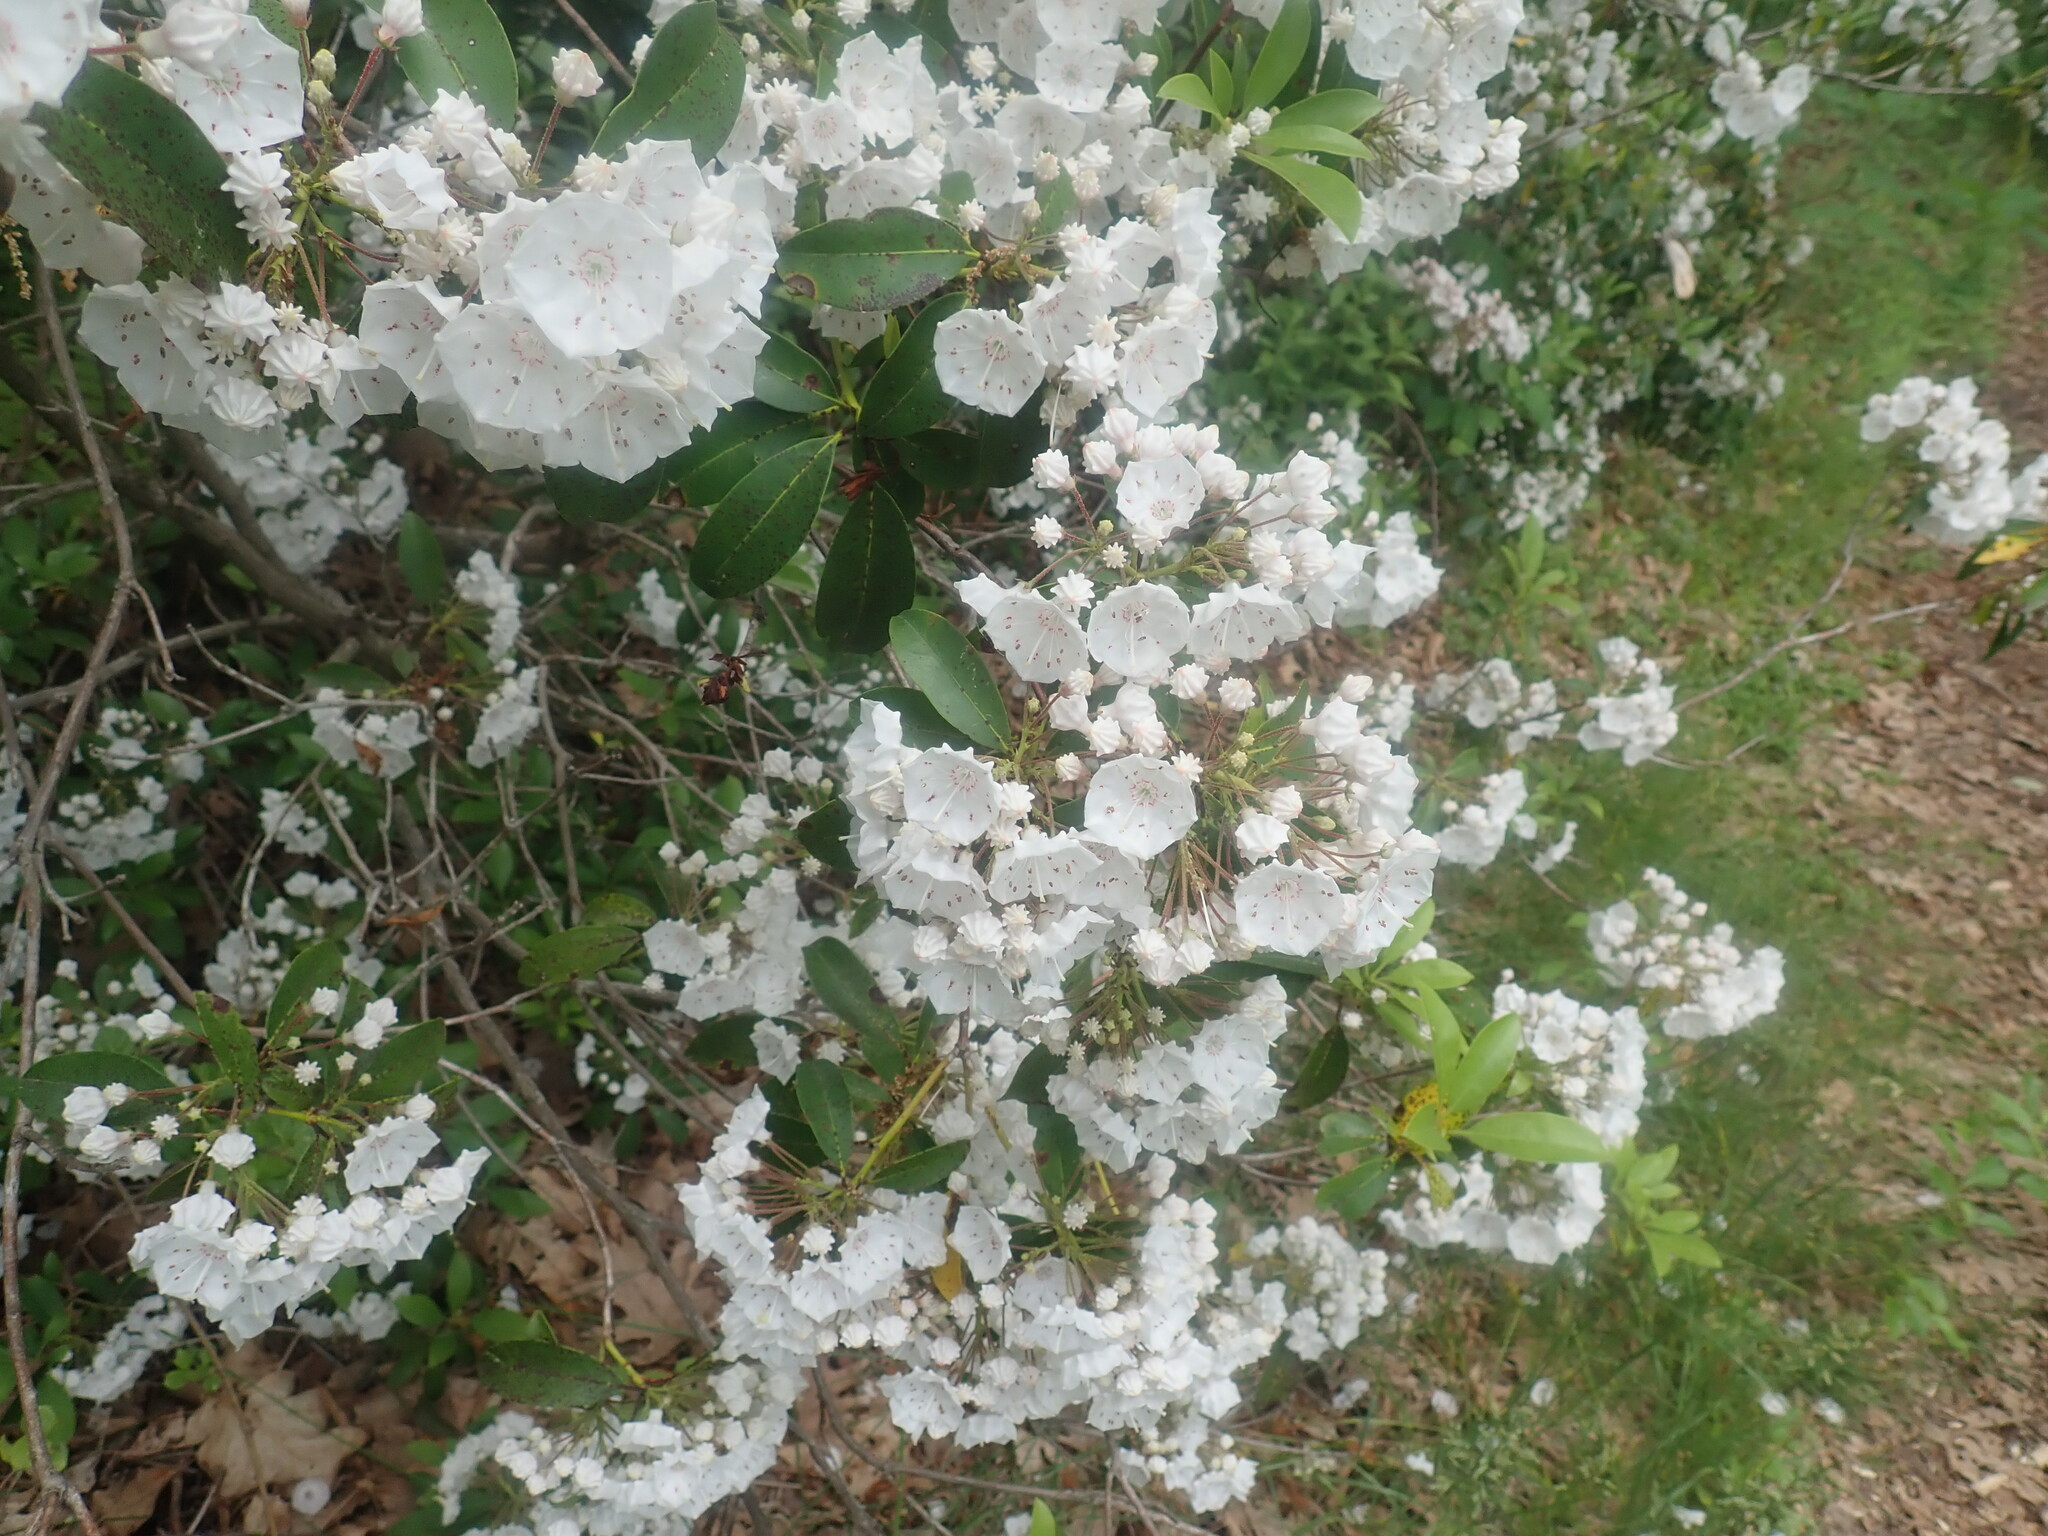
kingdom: Plantae
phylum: Tracheophyta
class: Magnoliopsida
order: Ericales
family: Ericaceae
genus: Kalmia
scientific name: Kalmia latifolia
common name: Mountain-laurel
